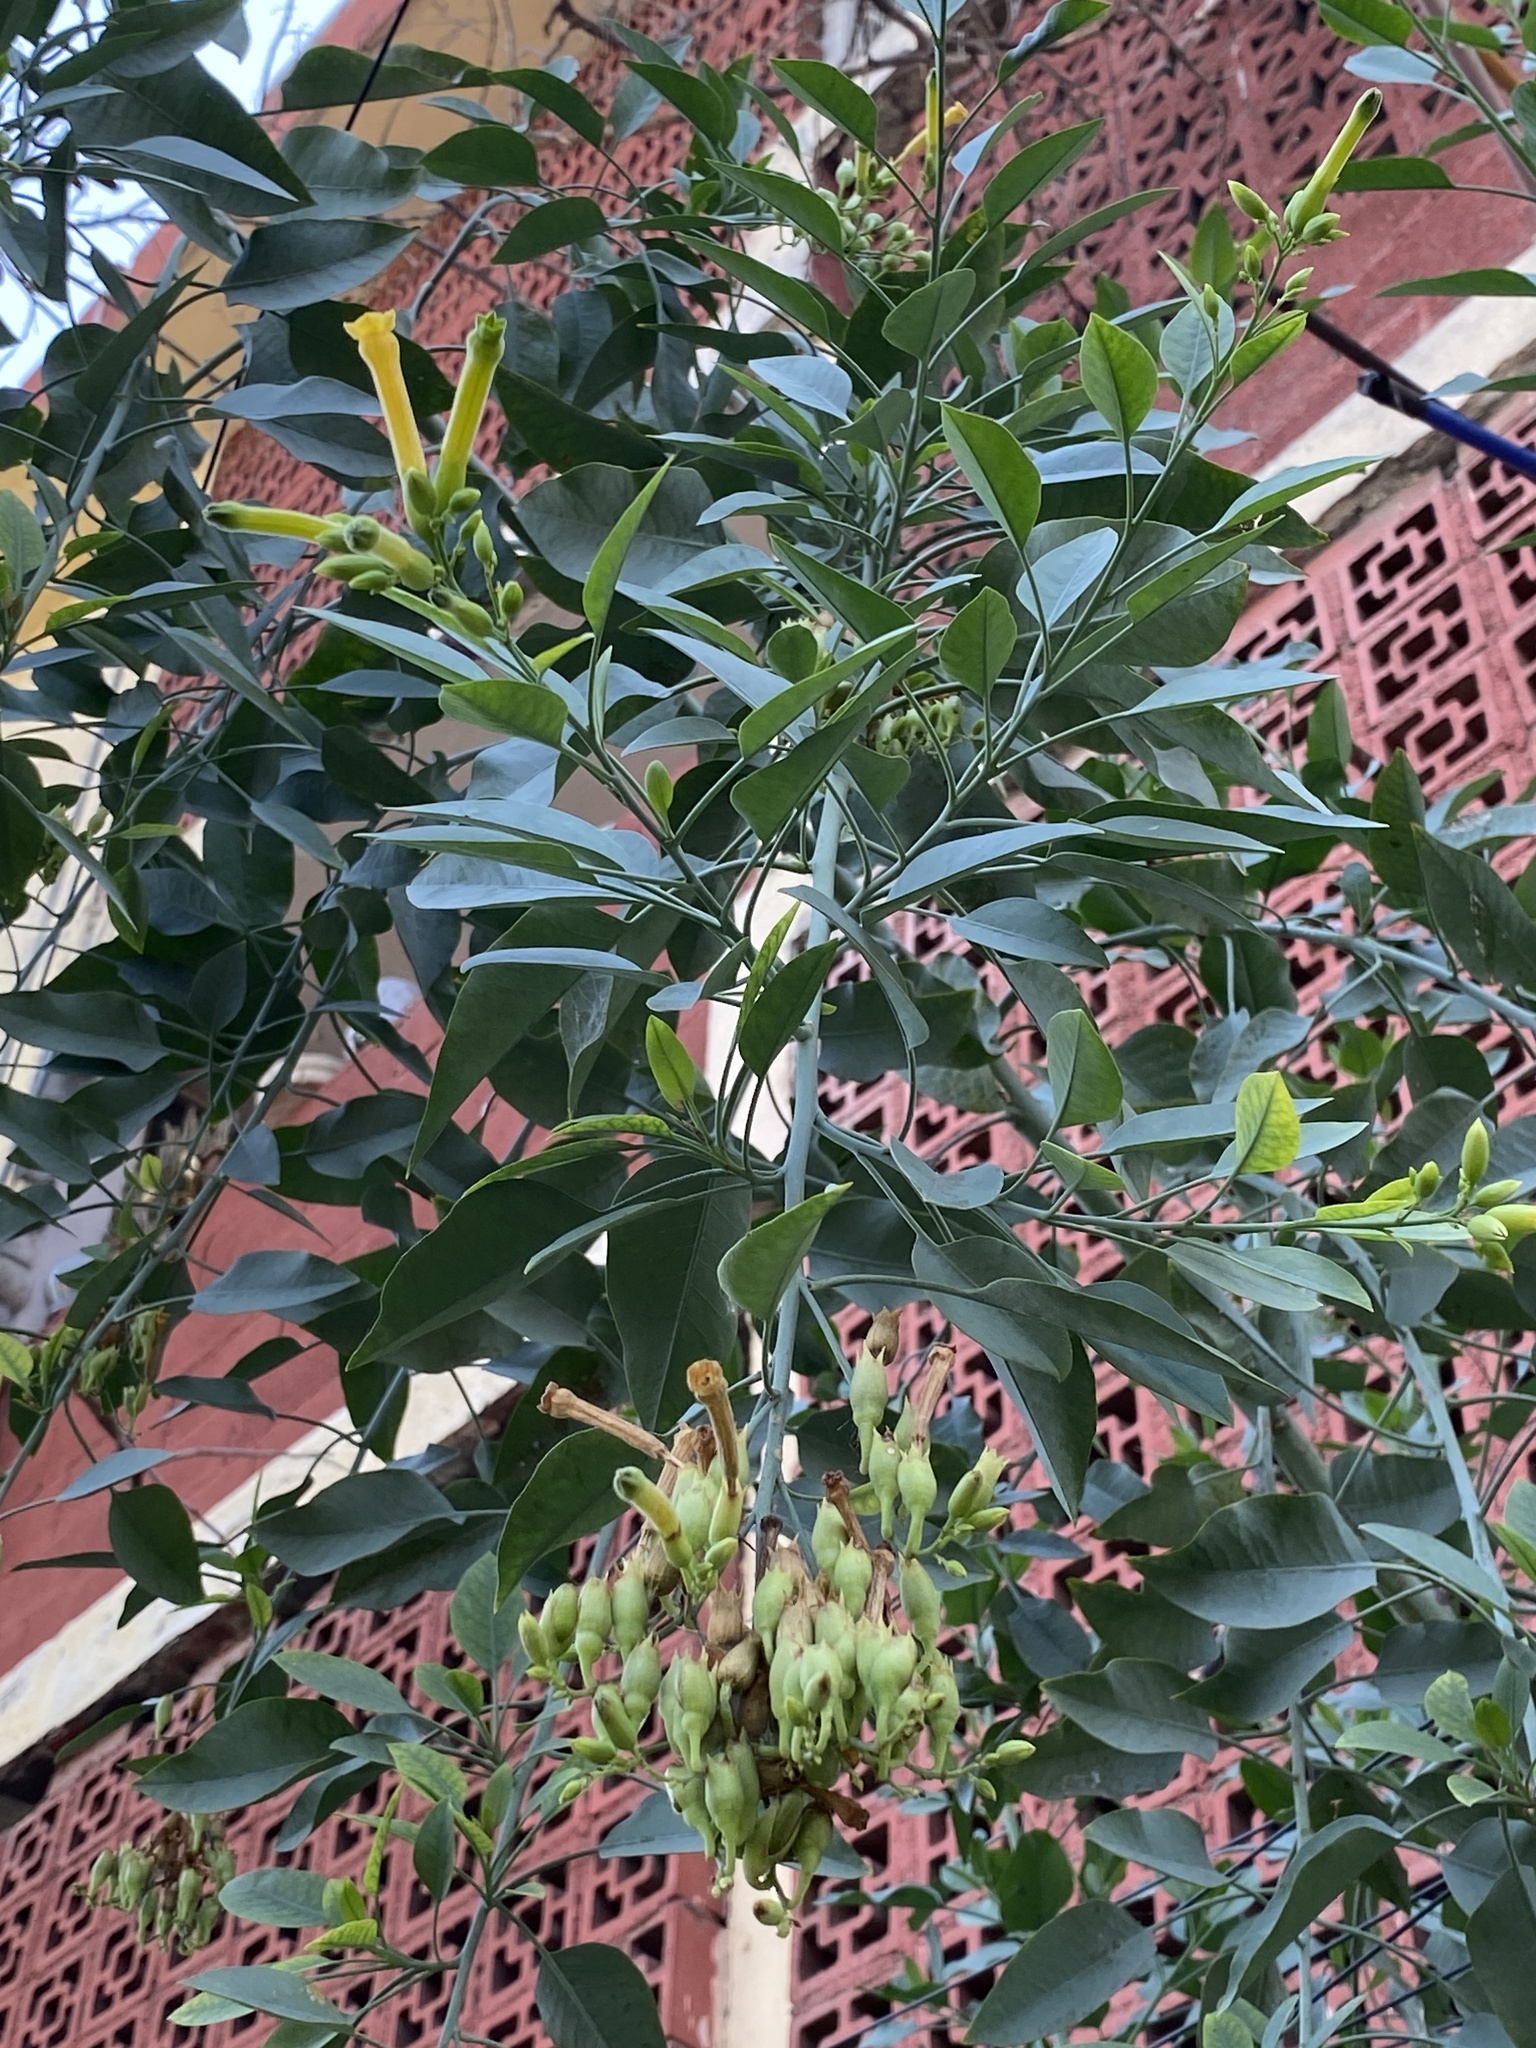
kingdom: Plantae
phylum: Tracheophyta
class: Magnoliopsida
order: Solanales
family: Solanaceae
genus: Nicotiana
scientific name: Nicotiana glauca
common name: Tree tobacco
